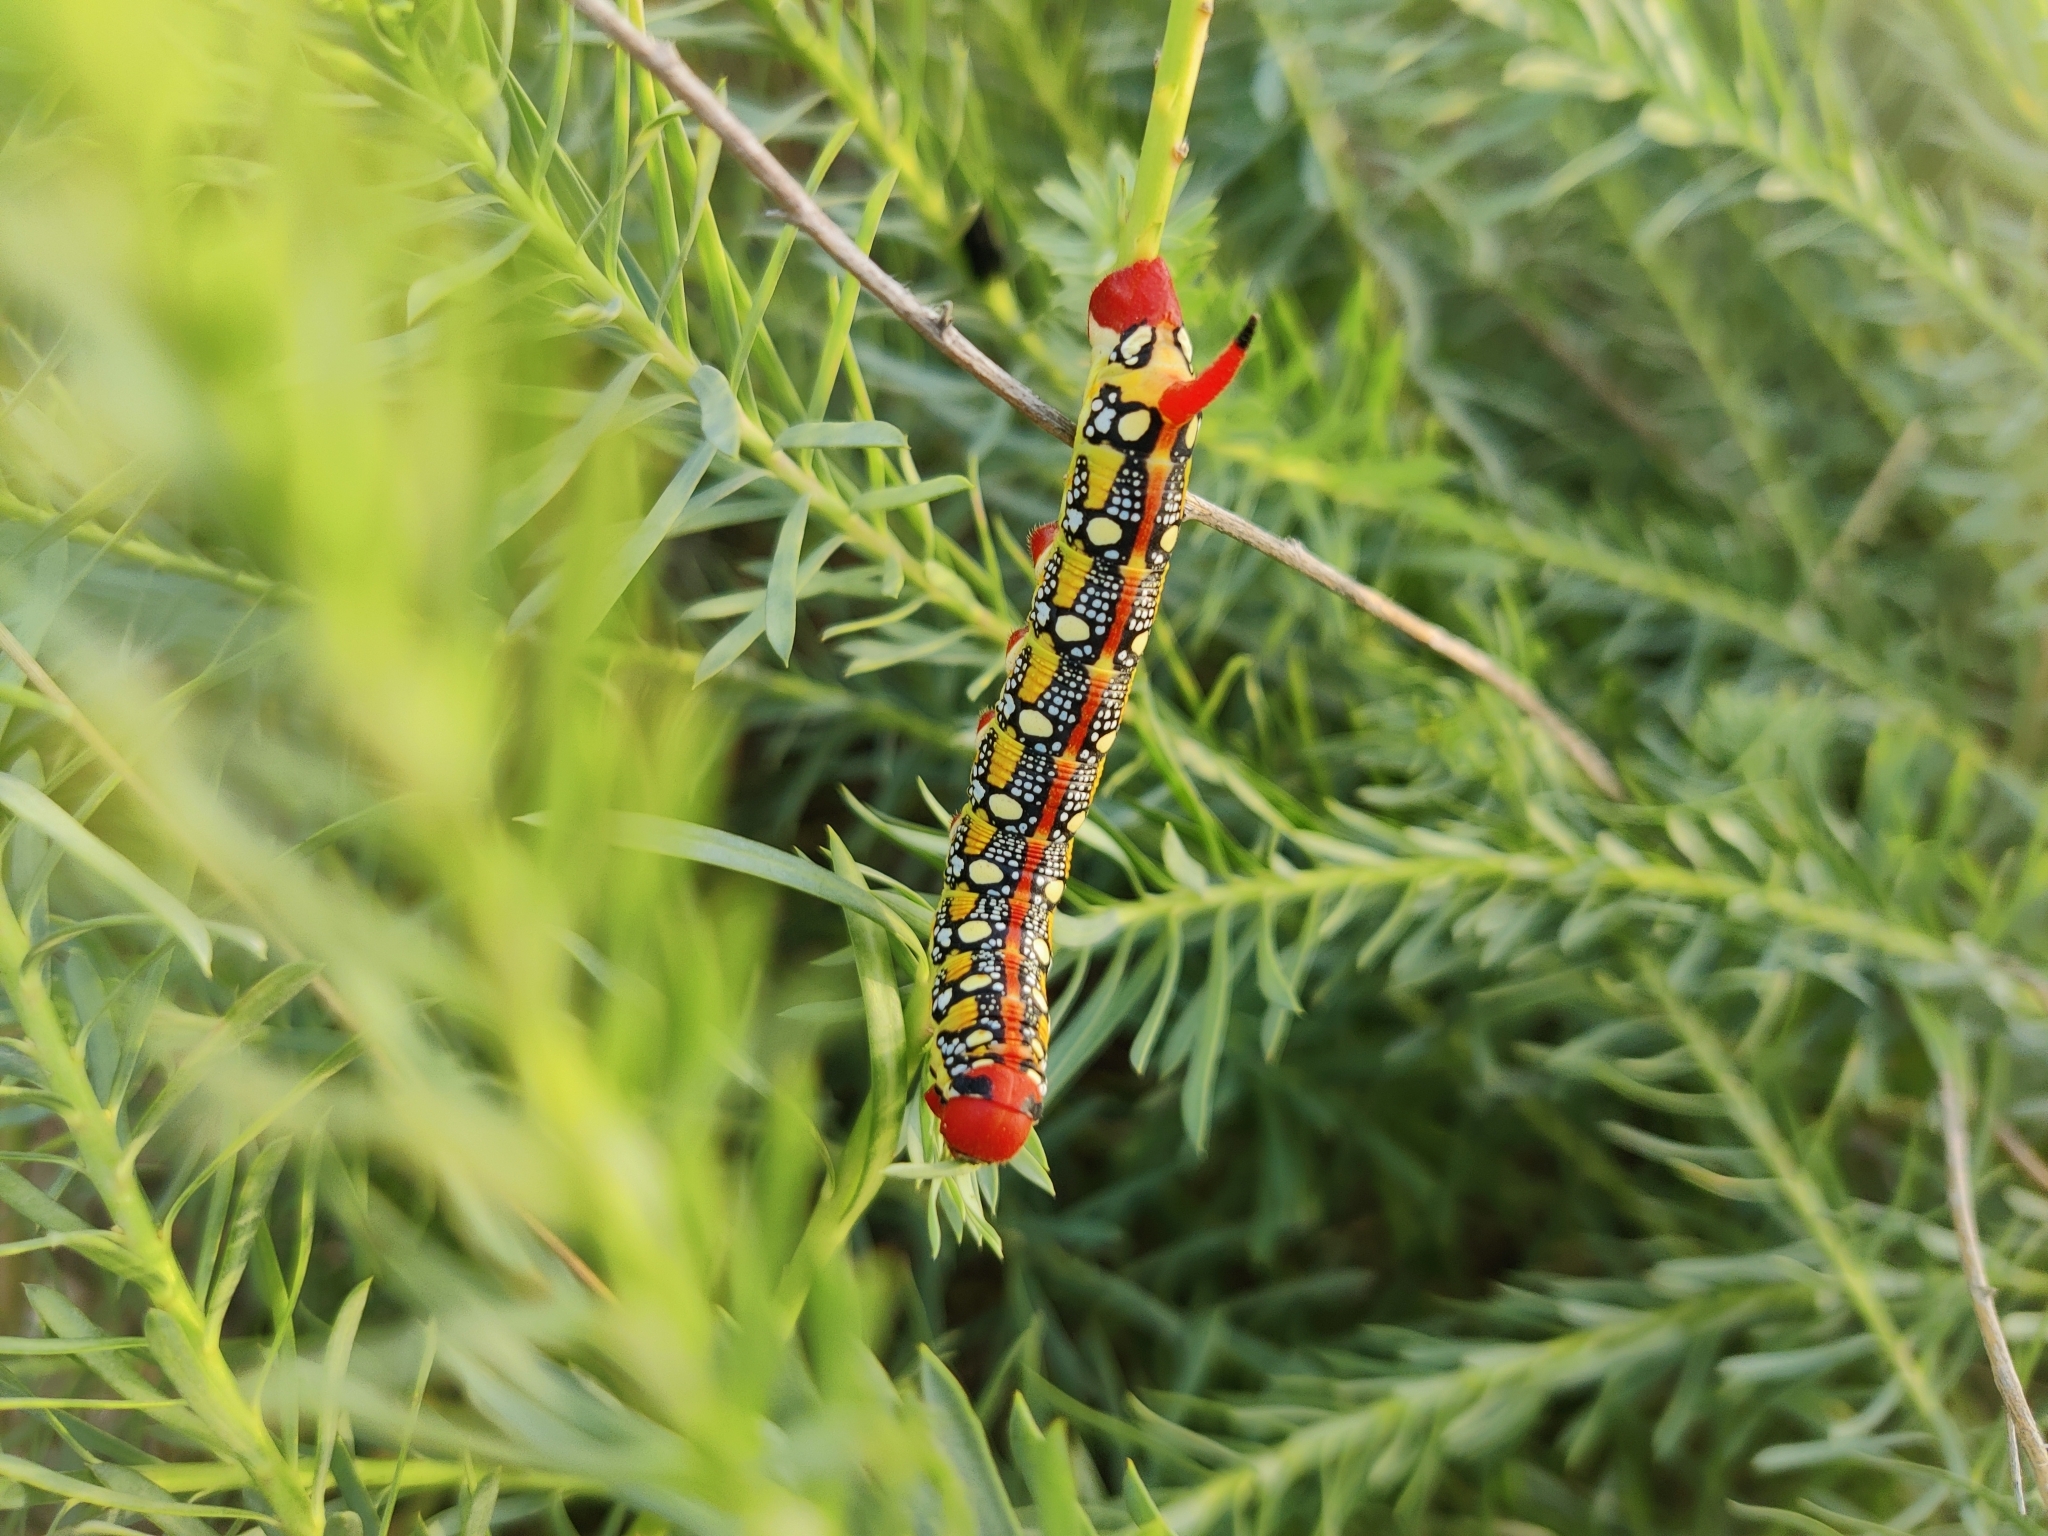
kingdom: Animalia
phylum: Arthropoda
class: Insecta
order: Lepidoptera
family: Sphingidae
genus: Hyles
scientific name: Hyles euphorbiae
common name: Spurge hawk-moth
